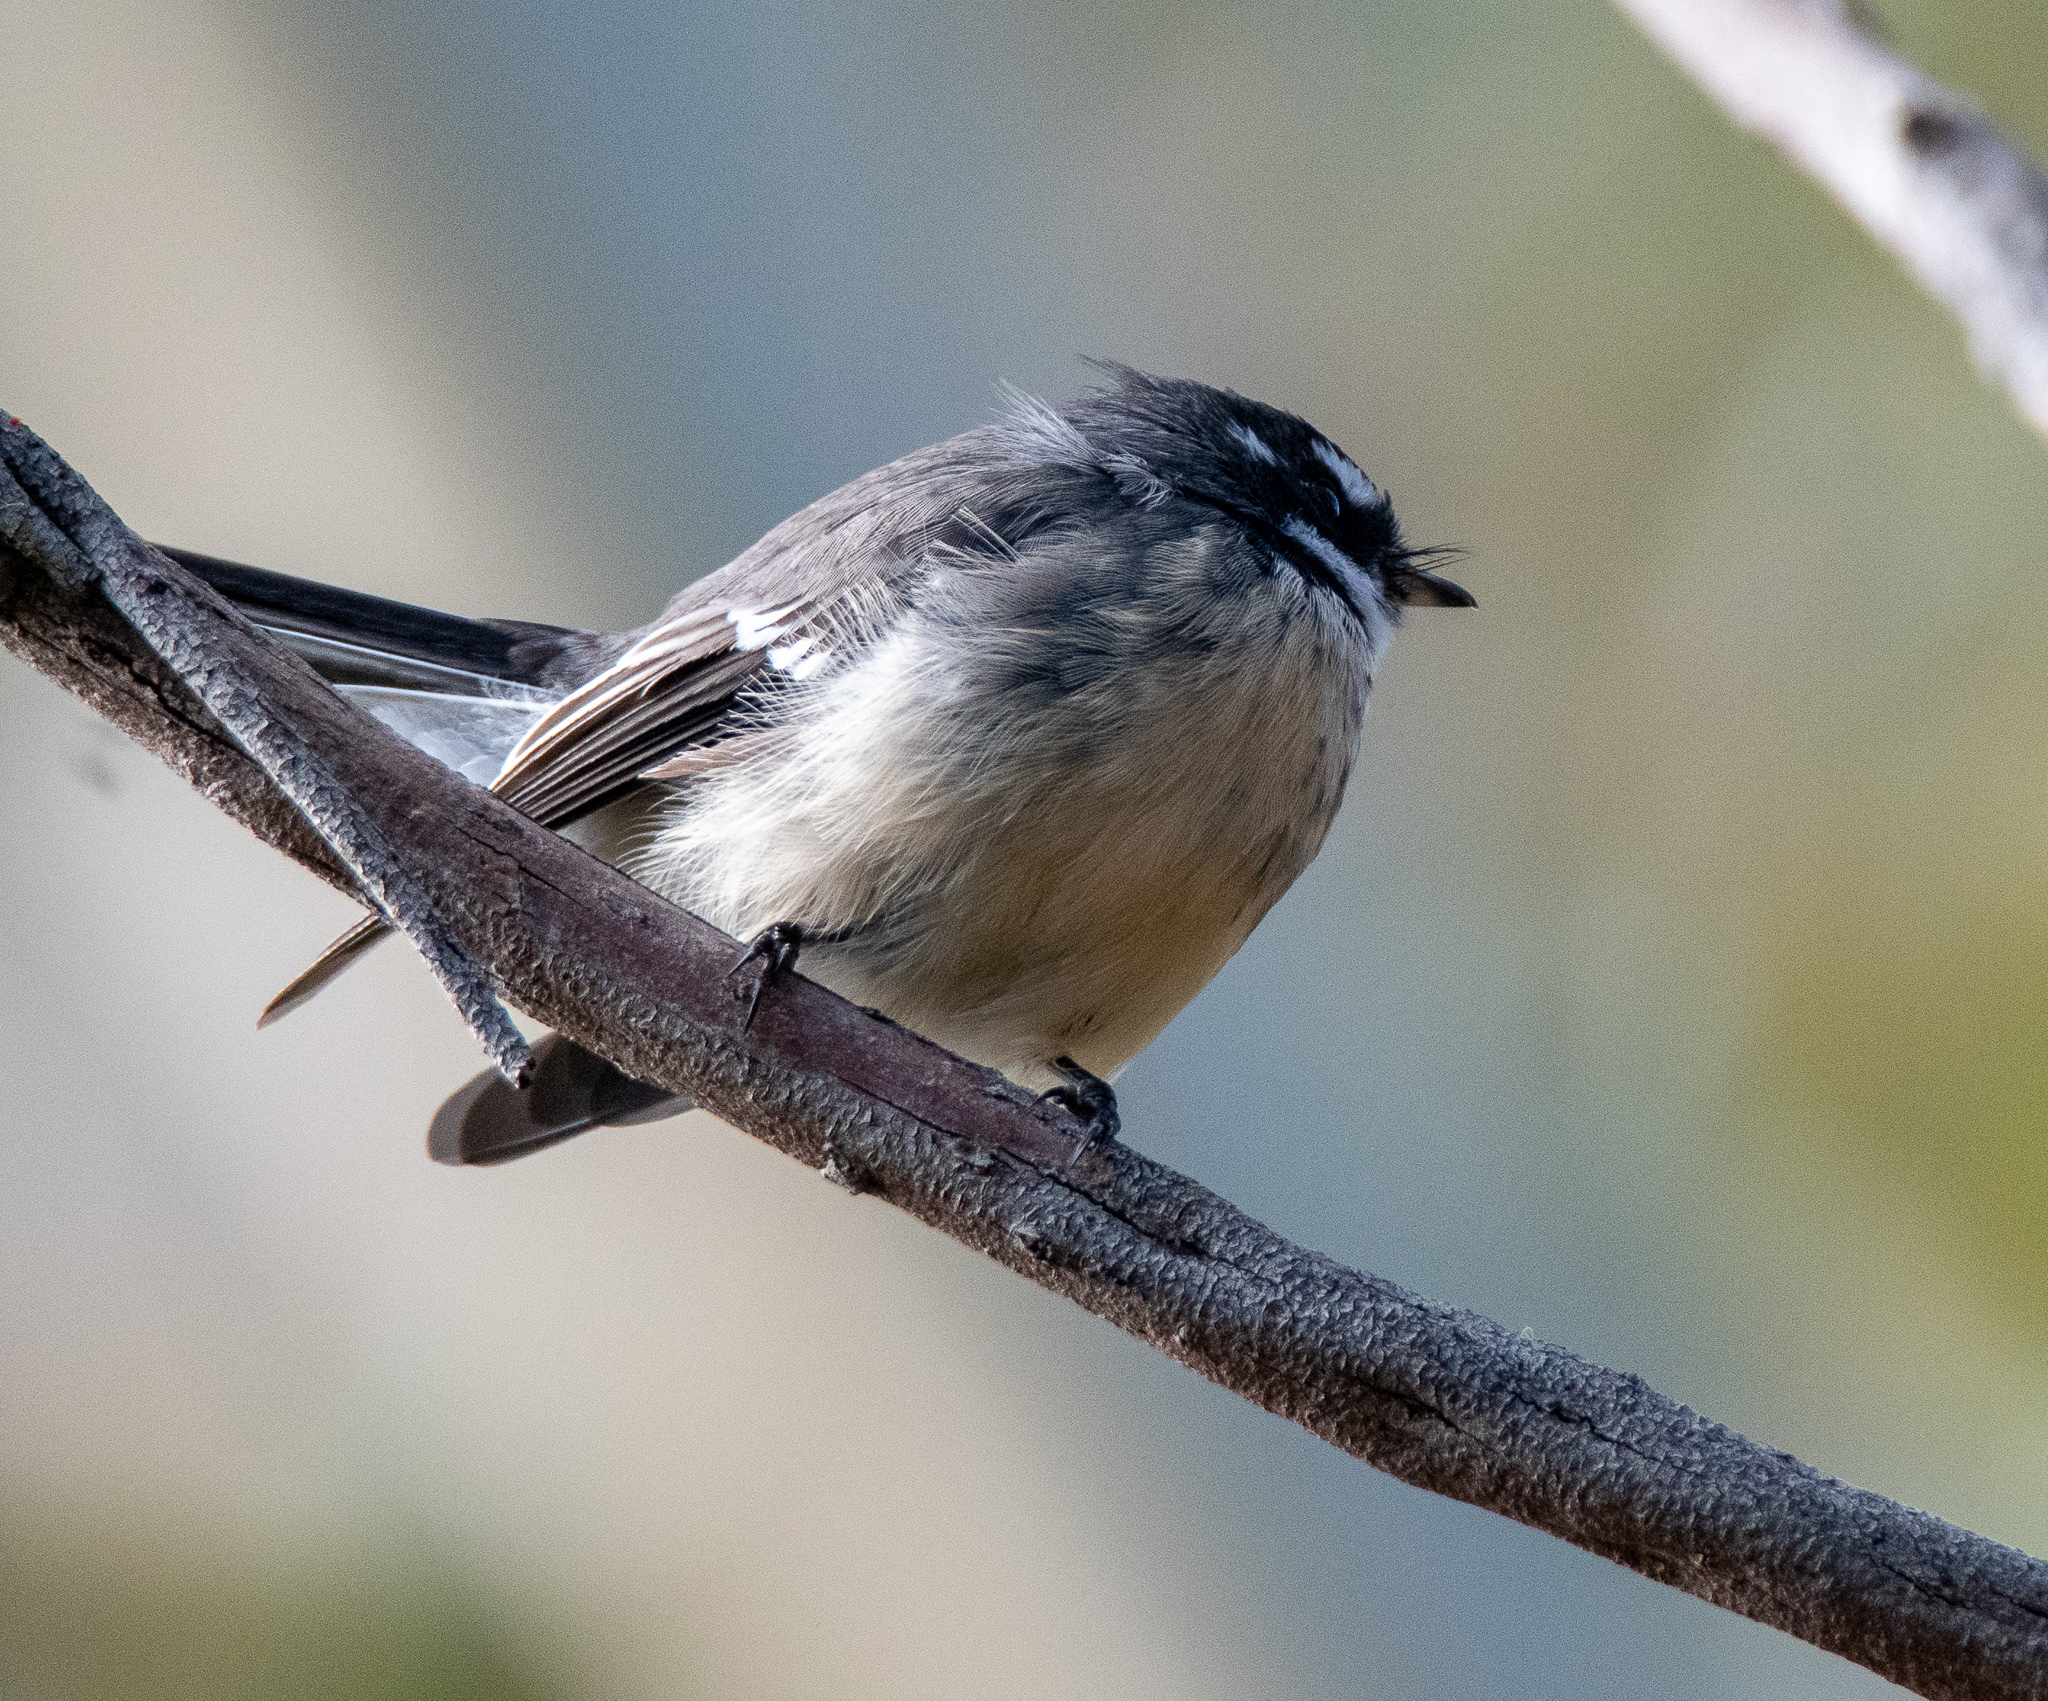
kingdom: Animalia
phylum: Chordata
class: Aves
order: Passeriformes
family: Rhipiduridae
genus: Rhipidura
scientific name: Rhipidura albiscapa
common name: Grey fantail
